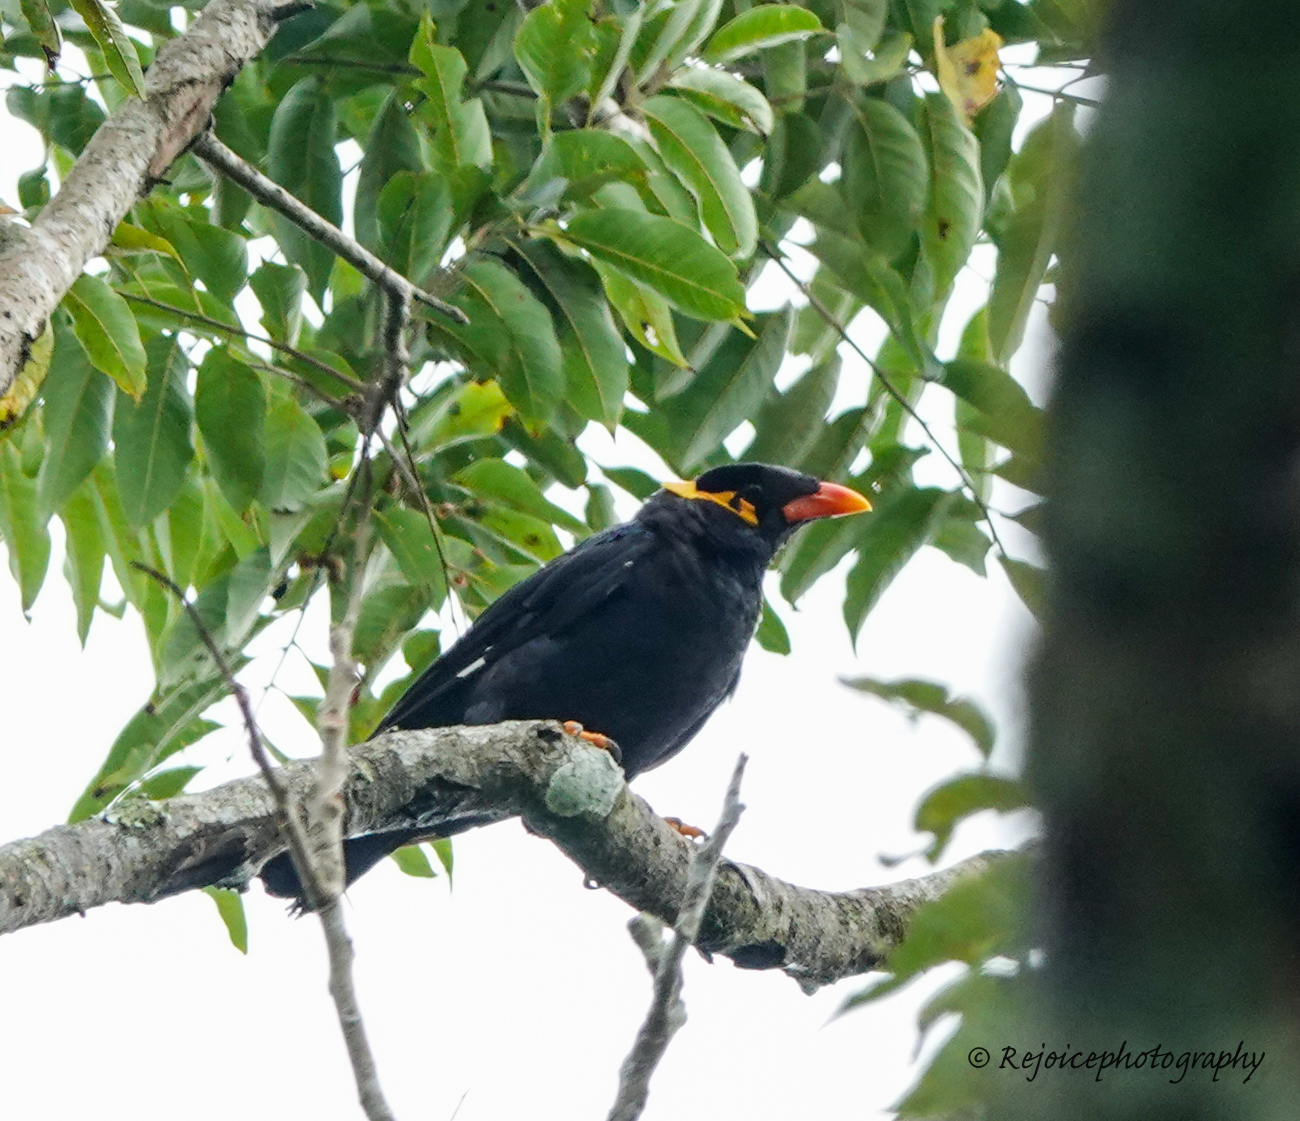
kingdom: Animalia
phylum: Chordata
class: Aves
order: Passeriformes
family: Sturnidae
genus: Gracula
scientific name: Gracula religiosa
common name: Common hill myna
